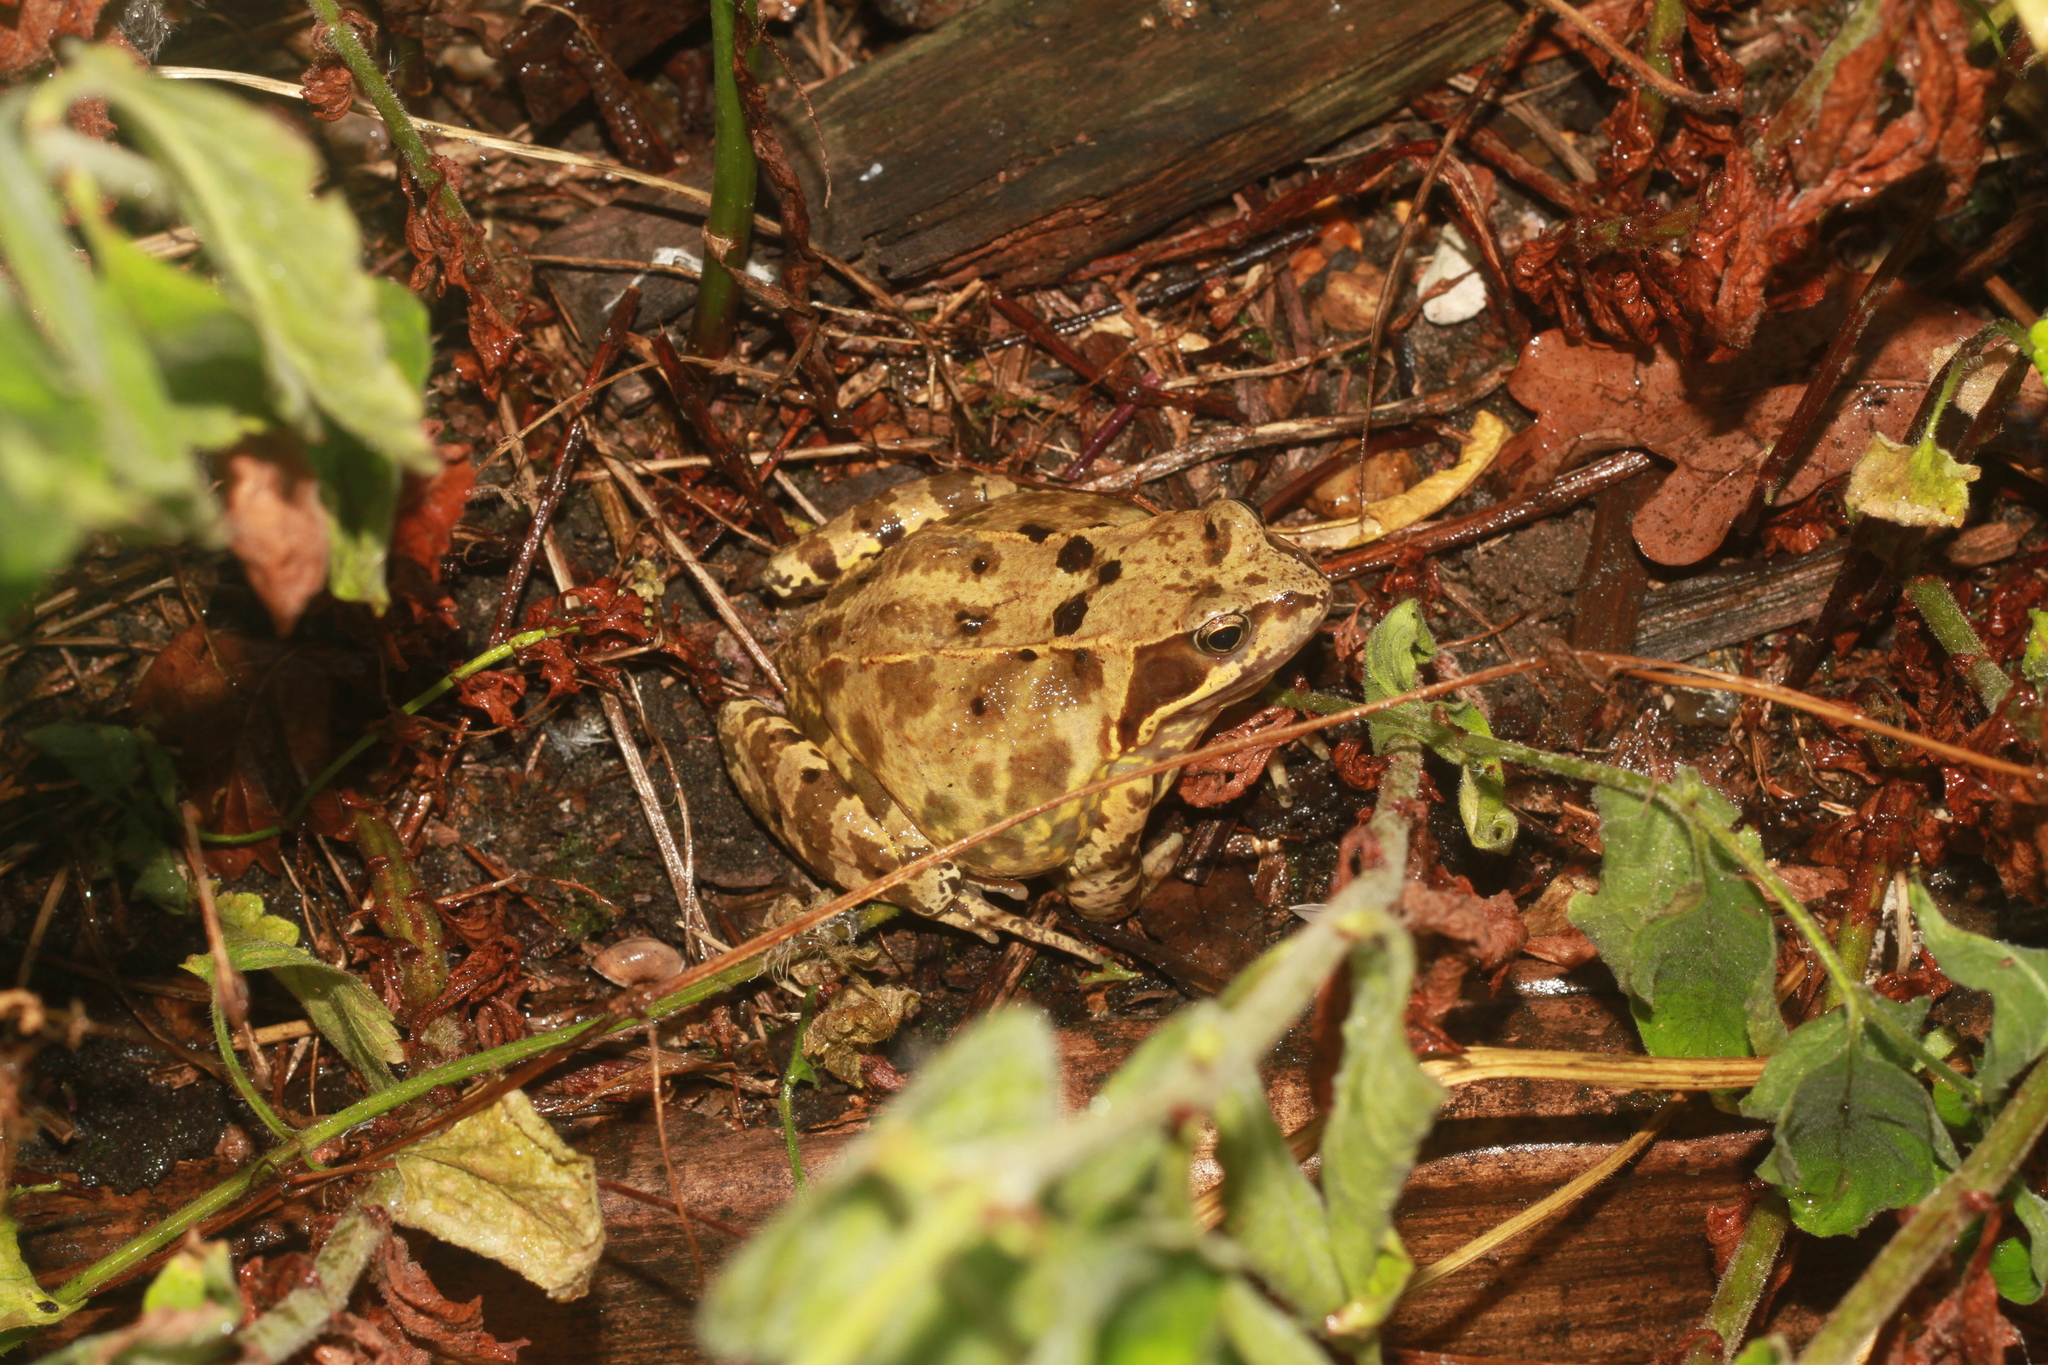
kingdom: Animalia
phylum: Chordata
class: Amphibia
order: Anura
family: Ranidae
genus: Rana
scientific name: Rana temporaria
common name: Common frog
